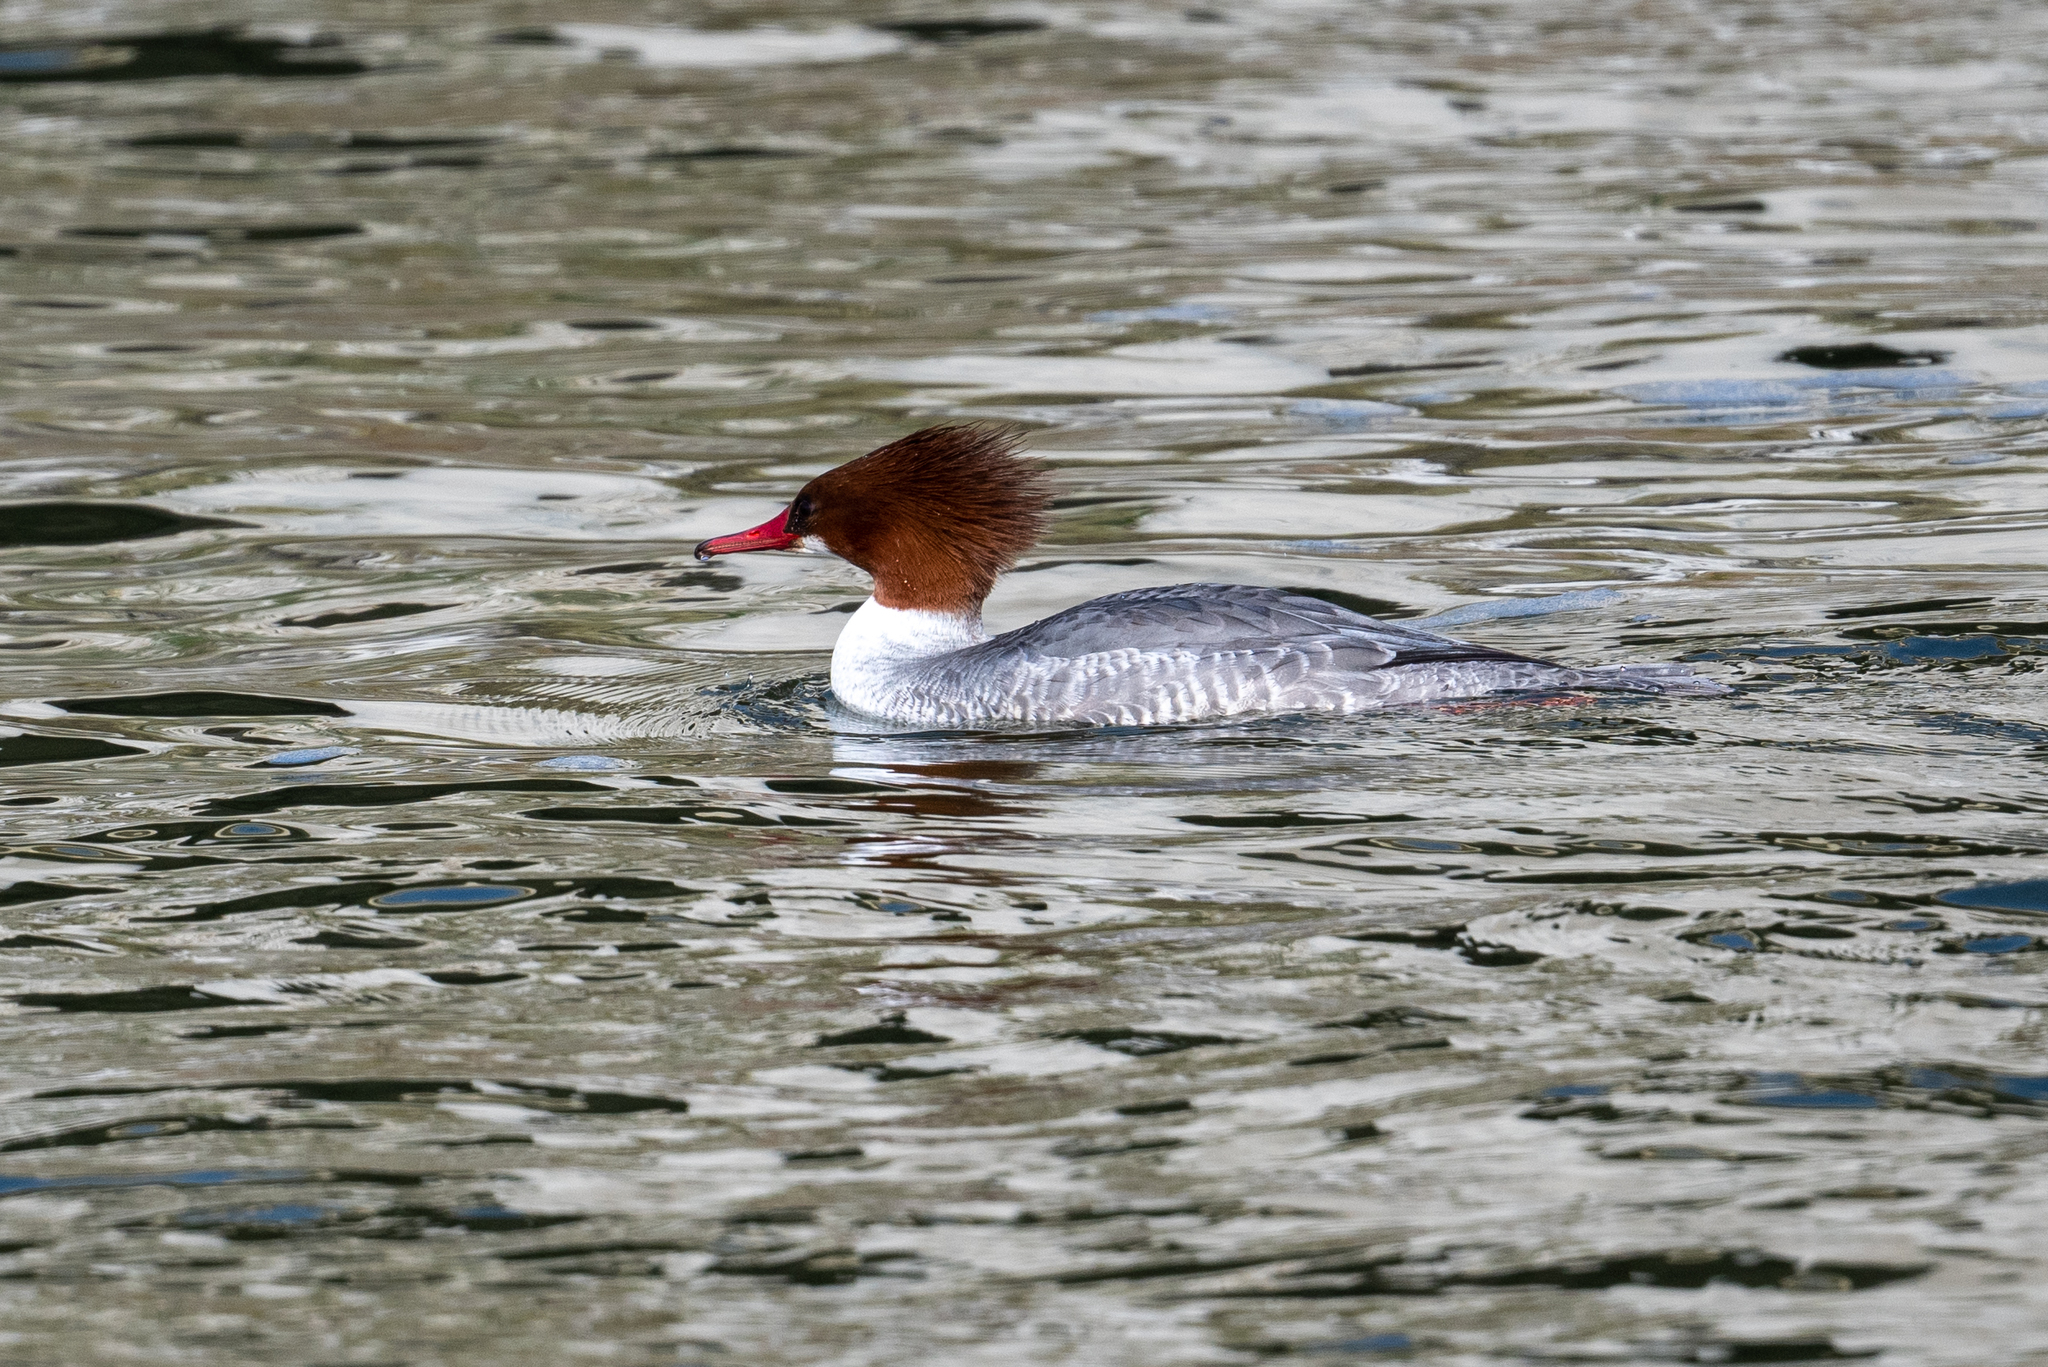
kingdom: Animalia
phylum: Chordata
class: Aves
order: Anseriformes
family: Anatidae
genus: Mergus
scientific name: Mergus merganser
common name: Common merganser
